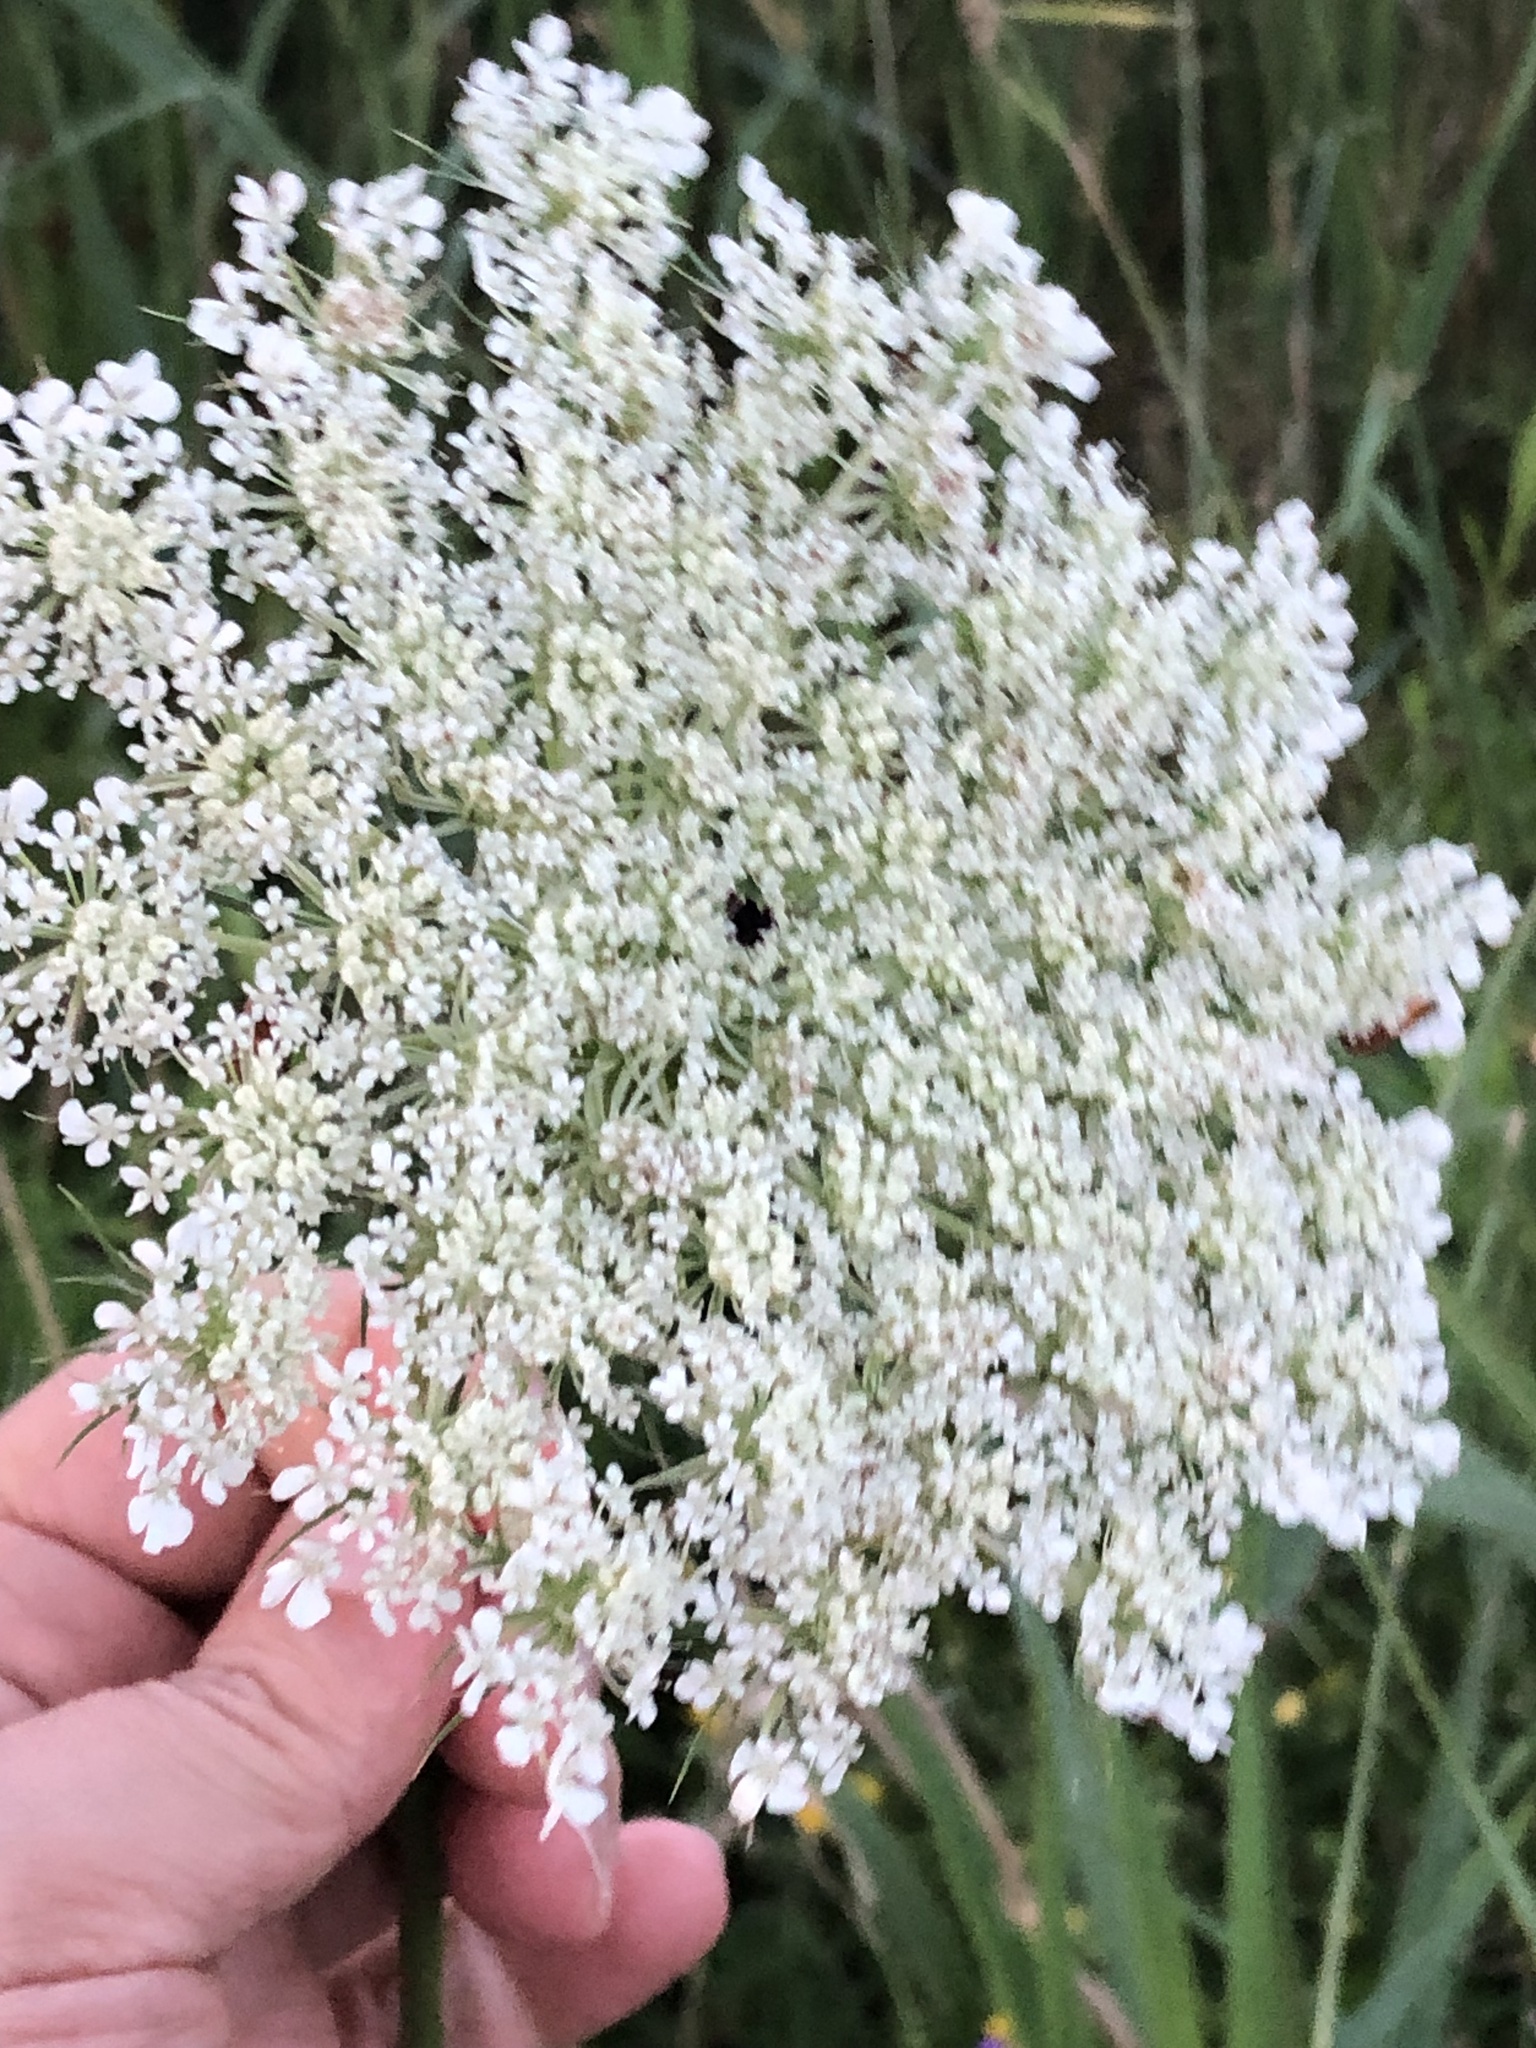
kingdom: Plantae
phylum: Tracheophyta
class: Magnoliopsida
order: Apiales
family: Apiaceae
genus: Daucus
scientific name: Daucus carota
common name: Wild carrot
